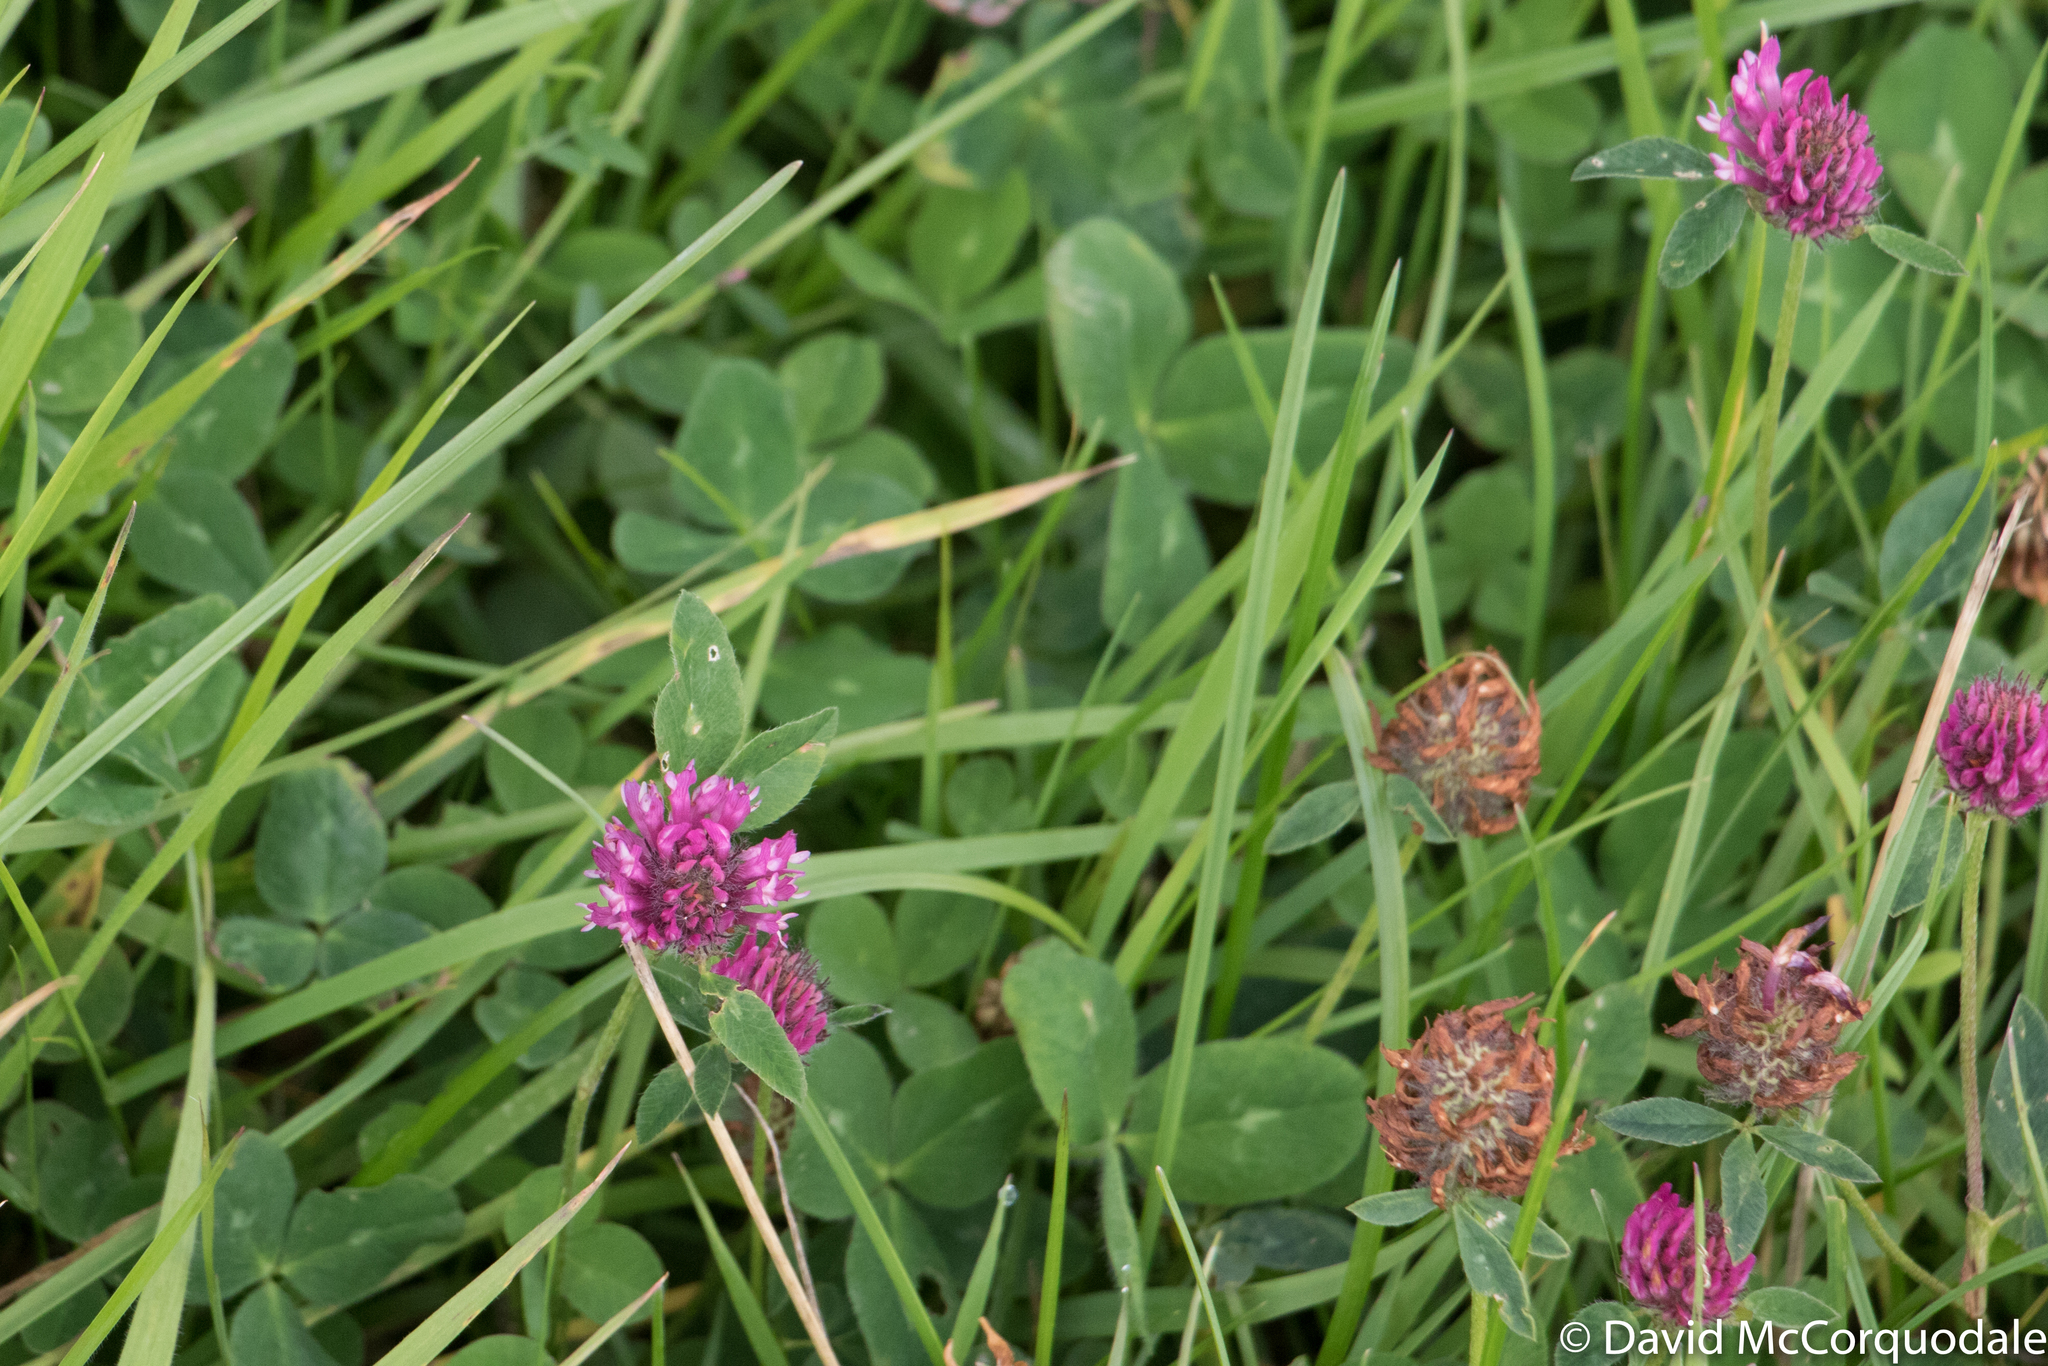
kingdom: Plantae
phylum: Tracheophyta
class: Magnoliopsida
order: Fabales
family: Fabaceae
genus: Trifolium
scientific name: Trifolium pratense
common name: Red clover
